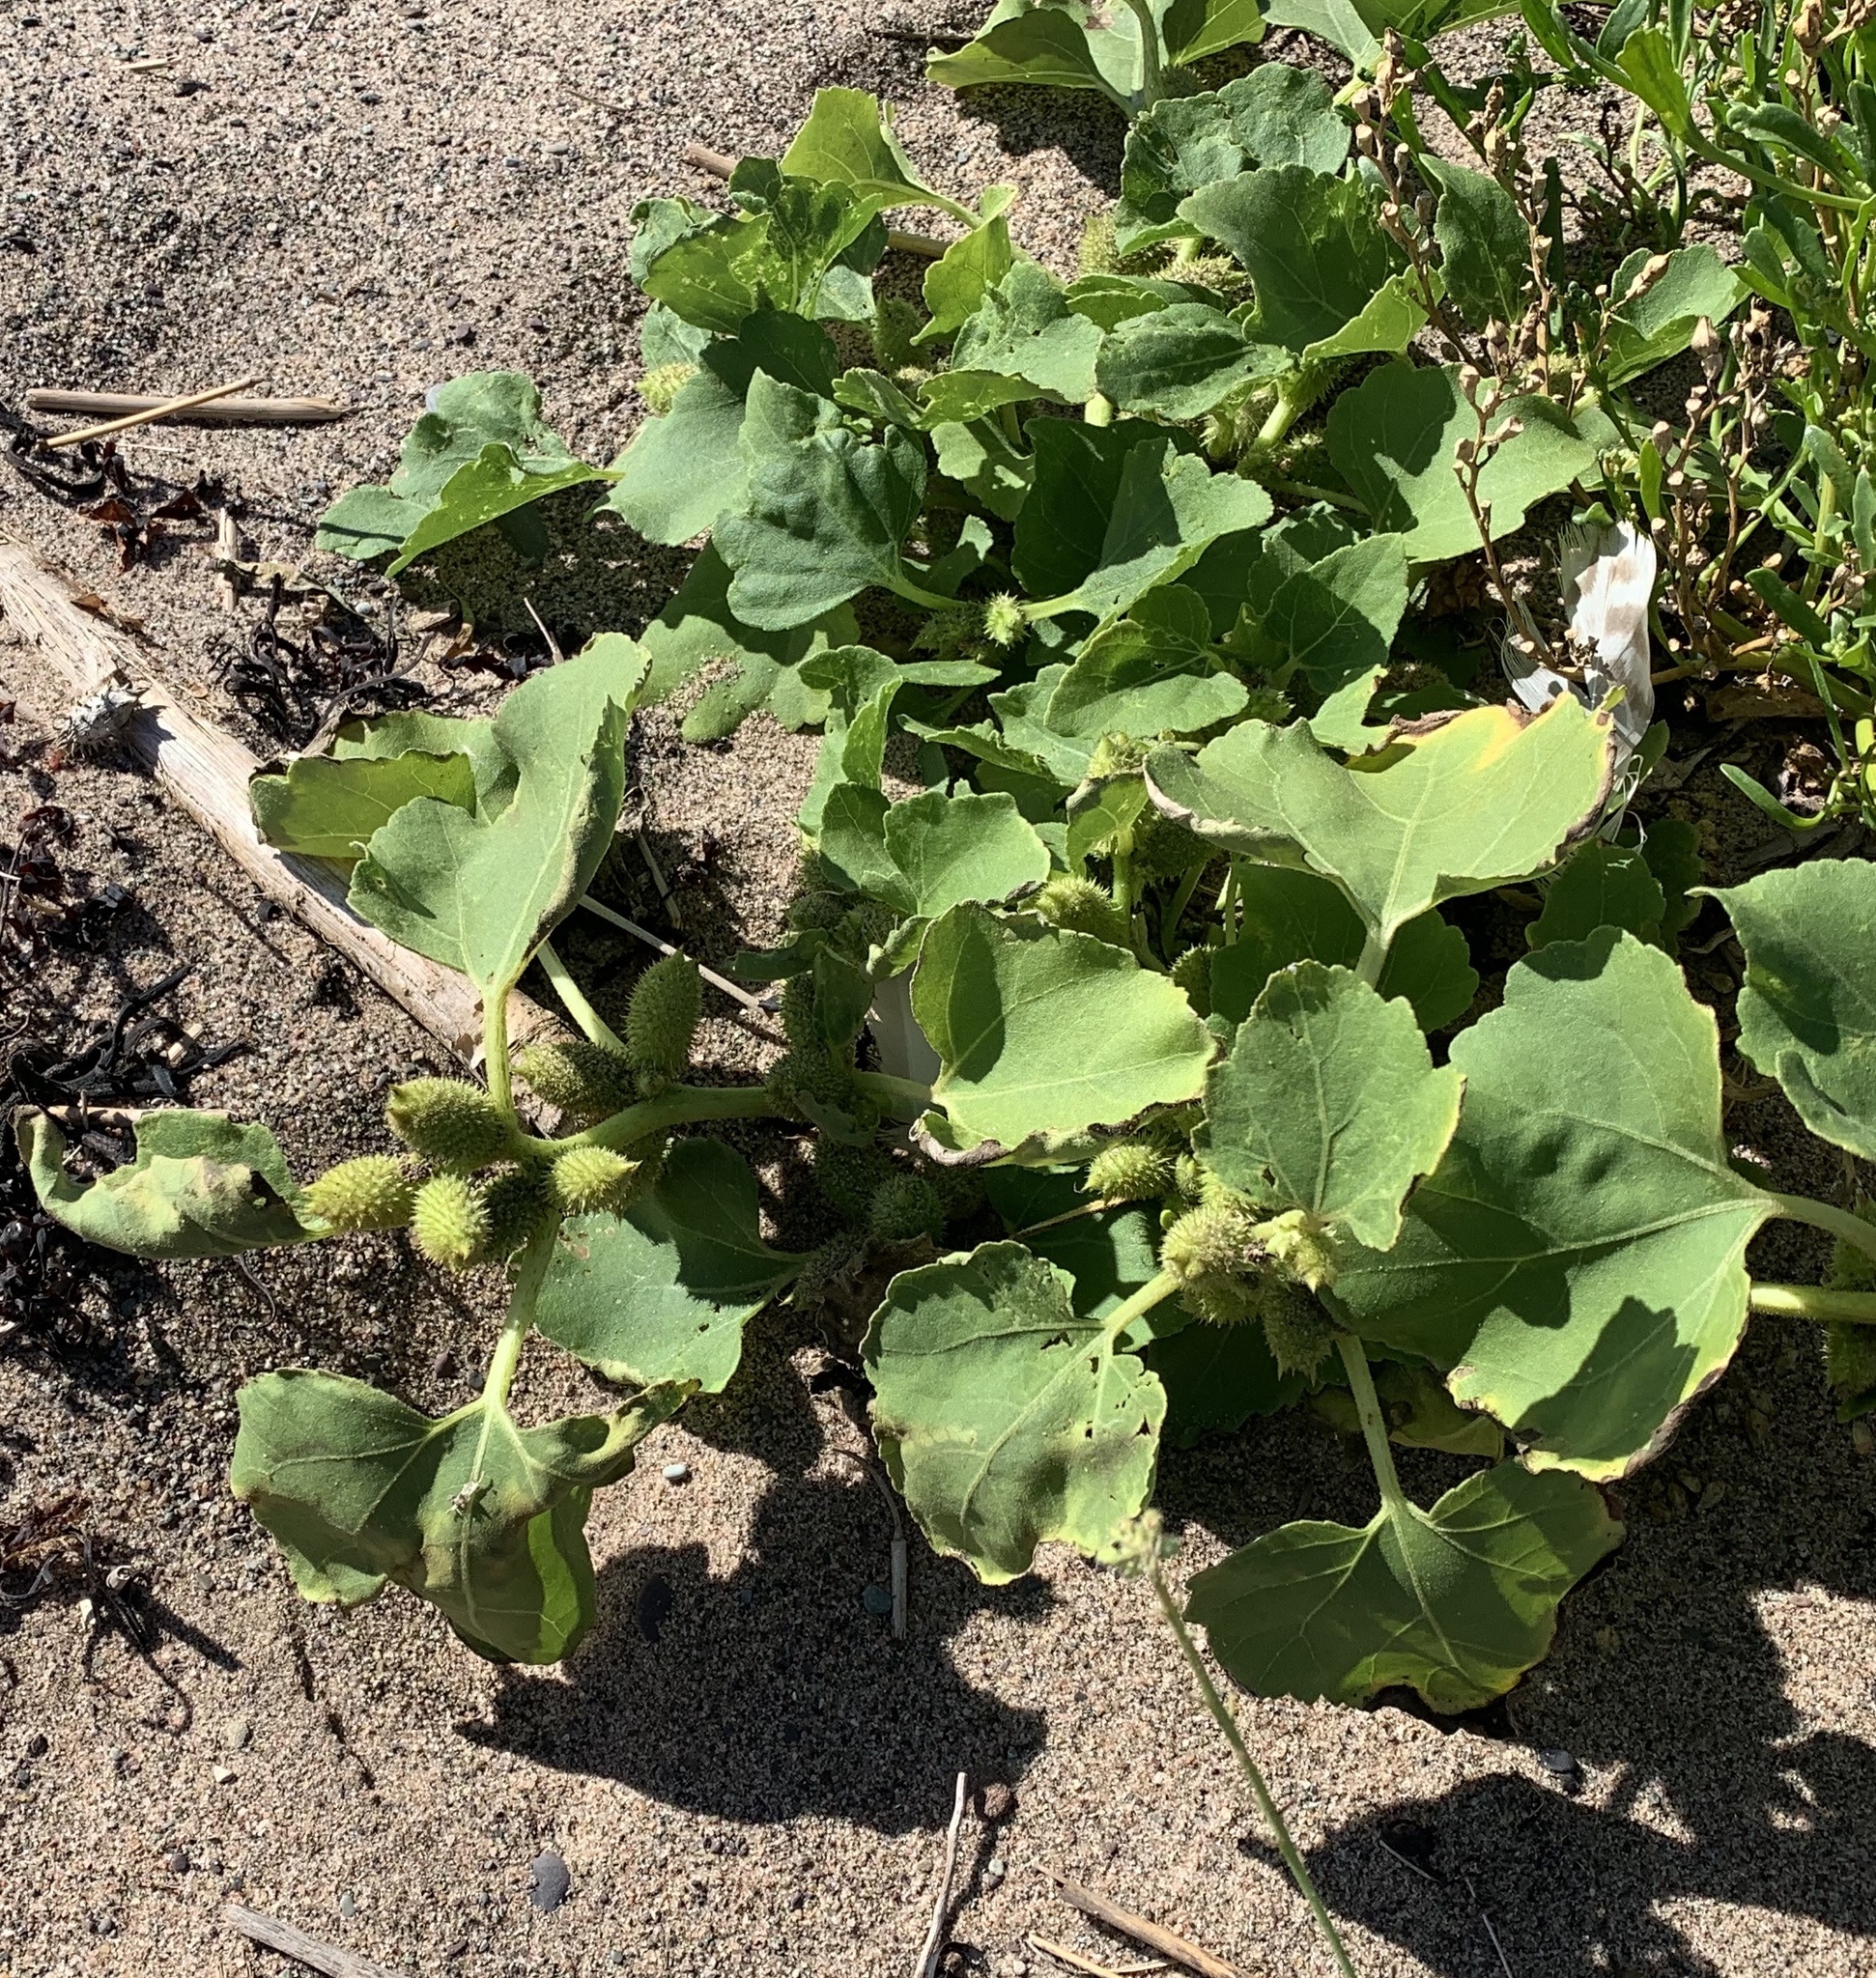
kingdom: Plantae
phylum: Tracheophyta
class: Magnoliopsida
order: Asterales
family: Asteraceae
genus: Xanthium
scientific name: Xanthium strumarium
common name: Rough cocklebur
